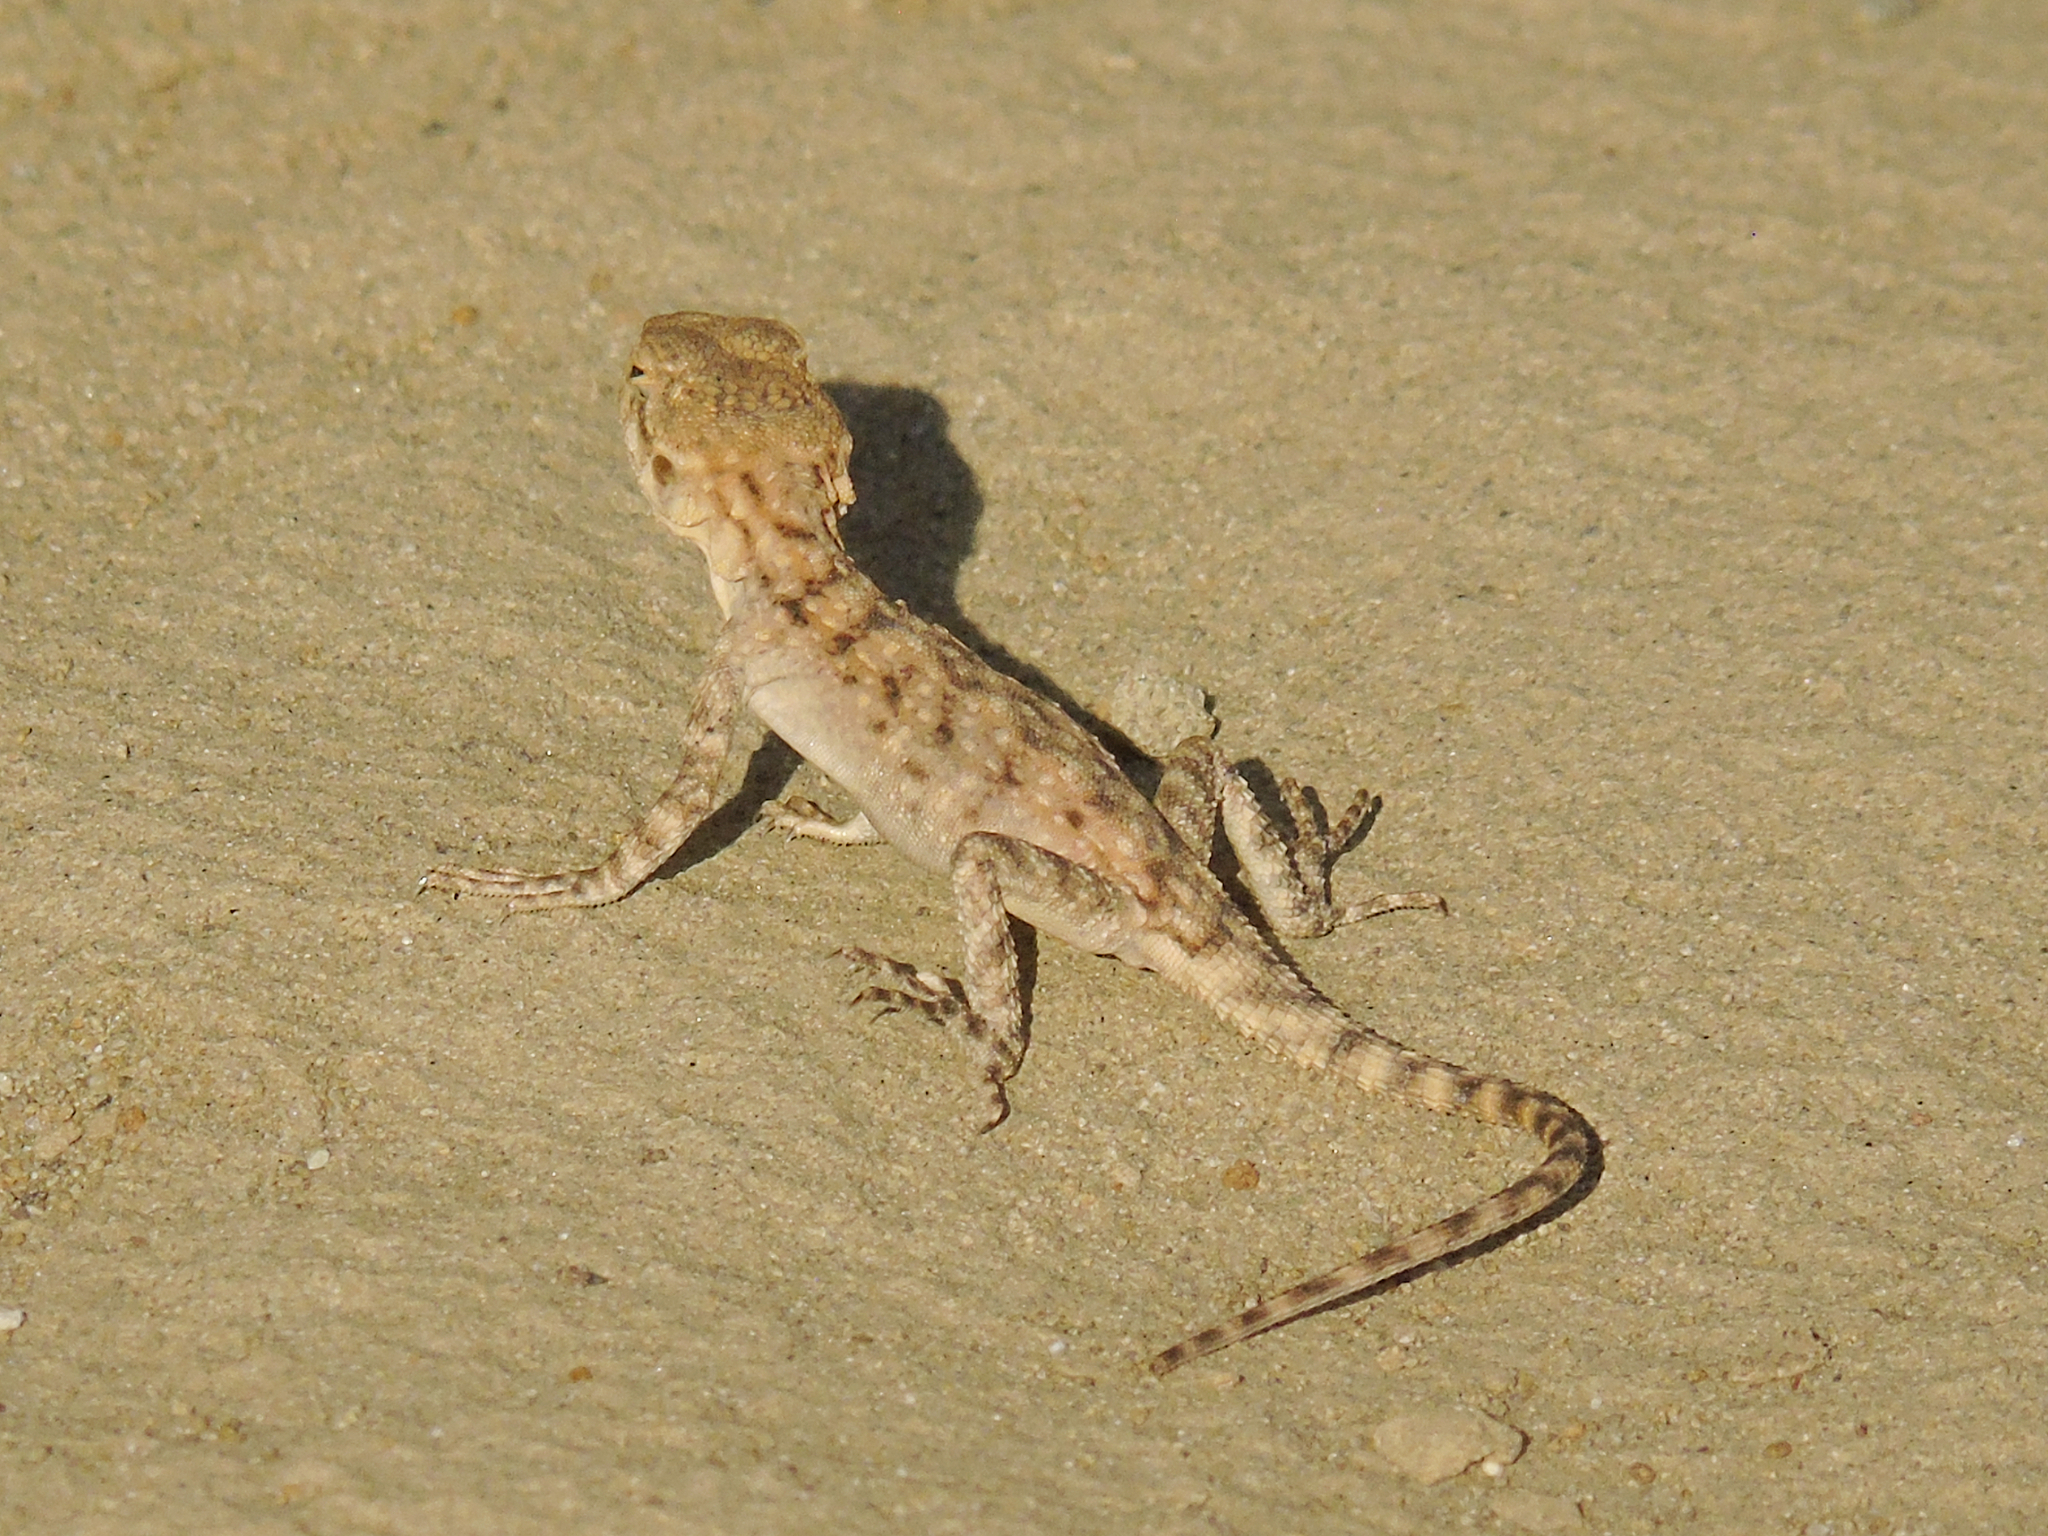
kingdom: Animalia
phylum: Chordata
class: Squamata
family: Agamidae
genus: Paralaudakia
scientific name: Paralaudakia caucasia
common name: Caucasian agama
